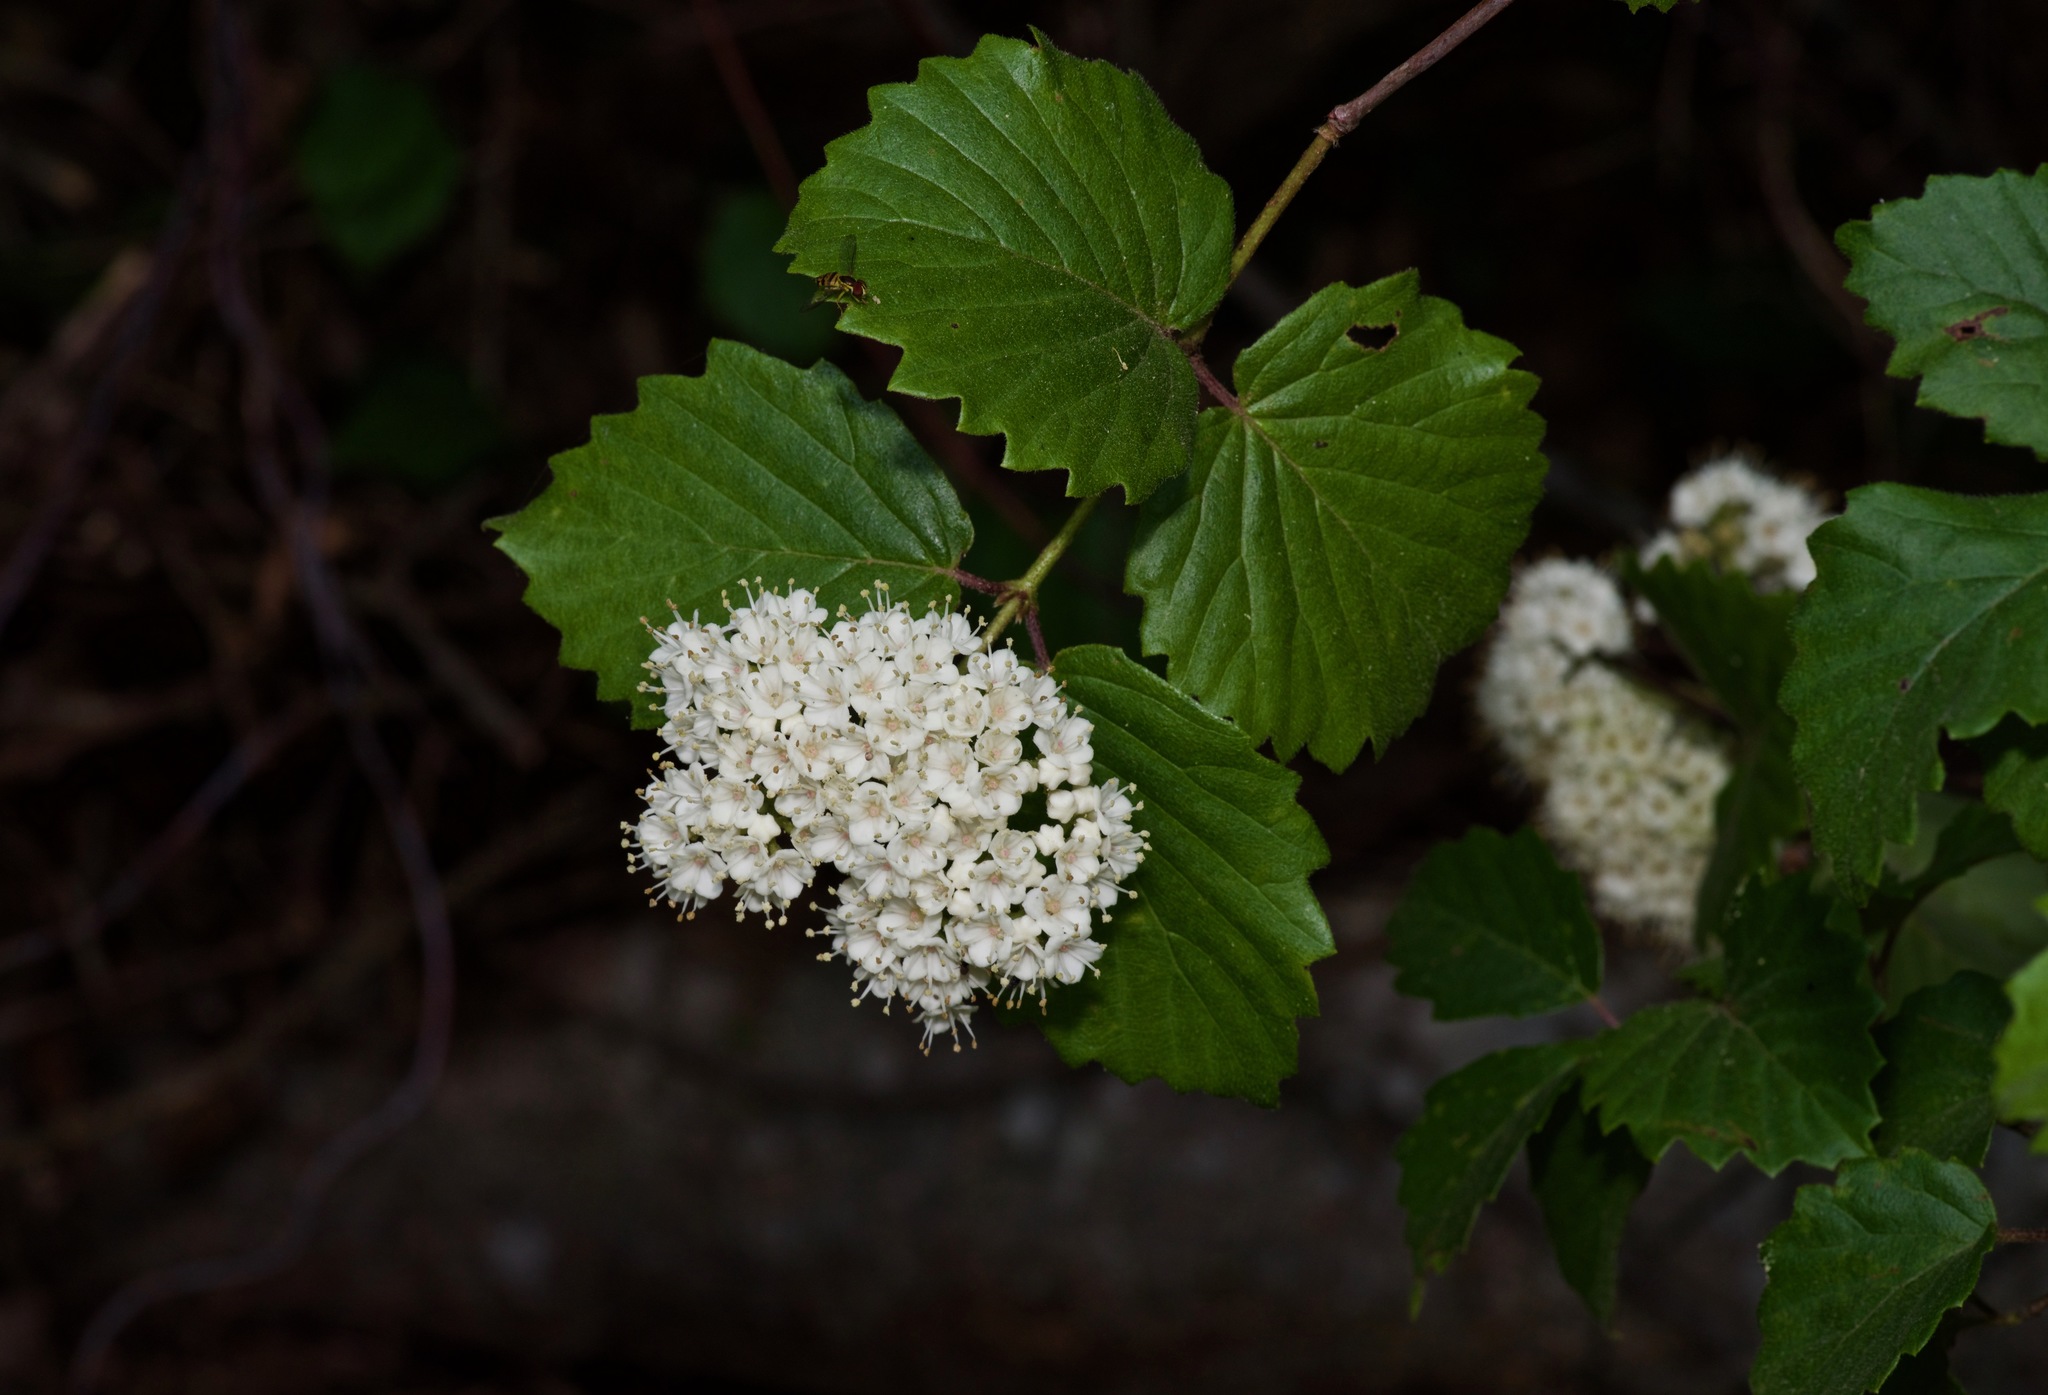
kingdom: Plantae
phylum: Tracheophyta
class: Magnoliopsida
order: Dipsacales
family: Viburnaceae
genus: Viburnum
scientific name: Viburnum scabrellum
